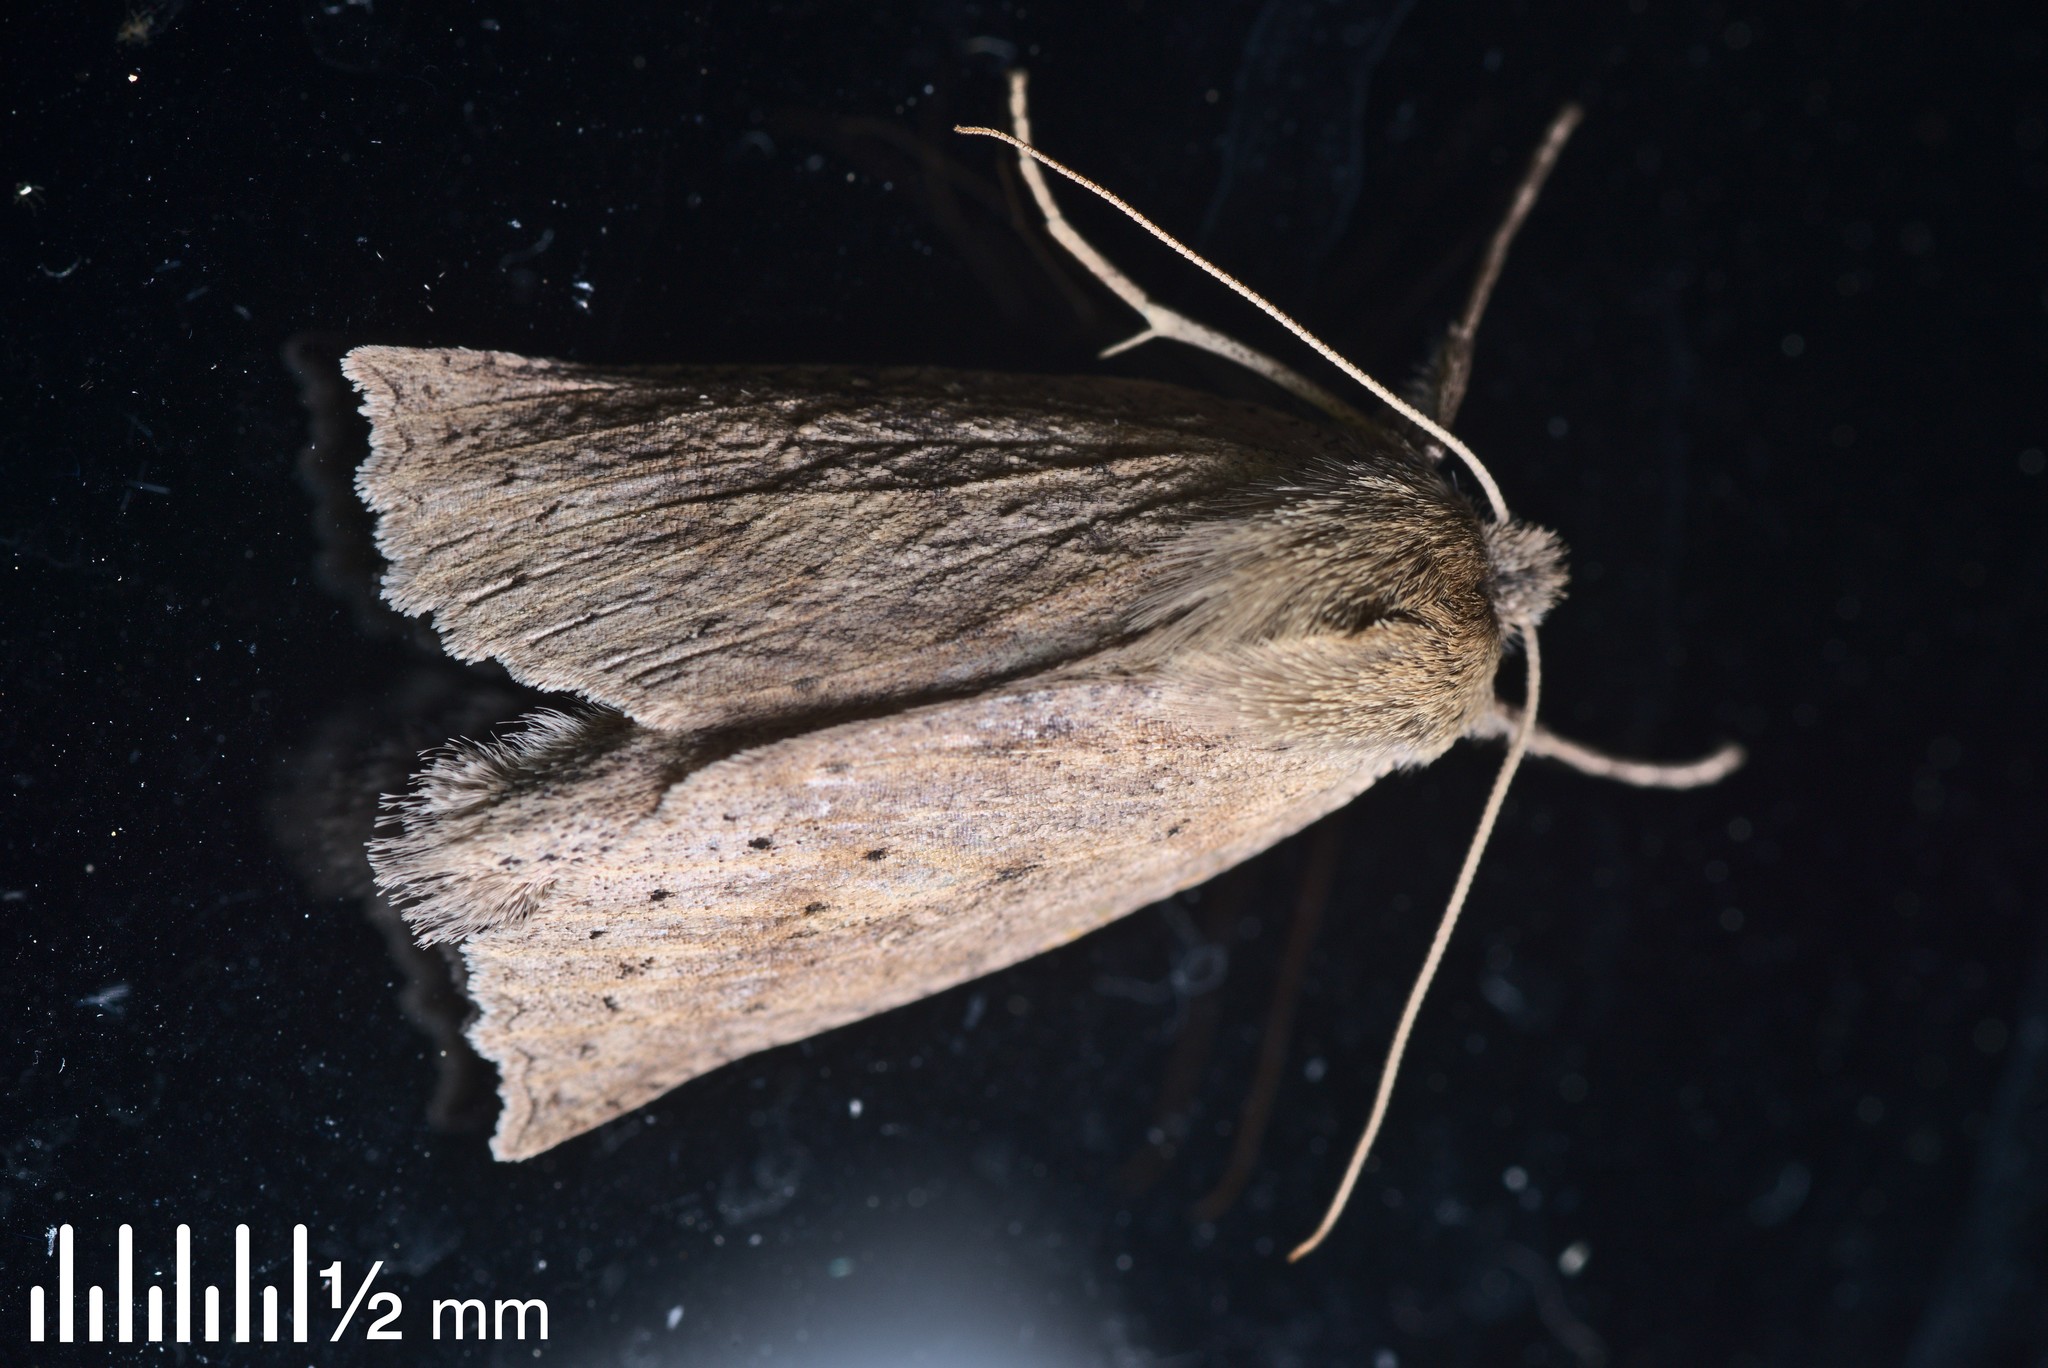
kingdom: Animalia
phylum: Arthropoda
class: Insecta
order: Lepidoptera
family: Geometridae
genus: Declana
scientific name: Declana leptomera
